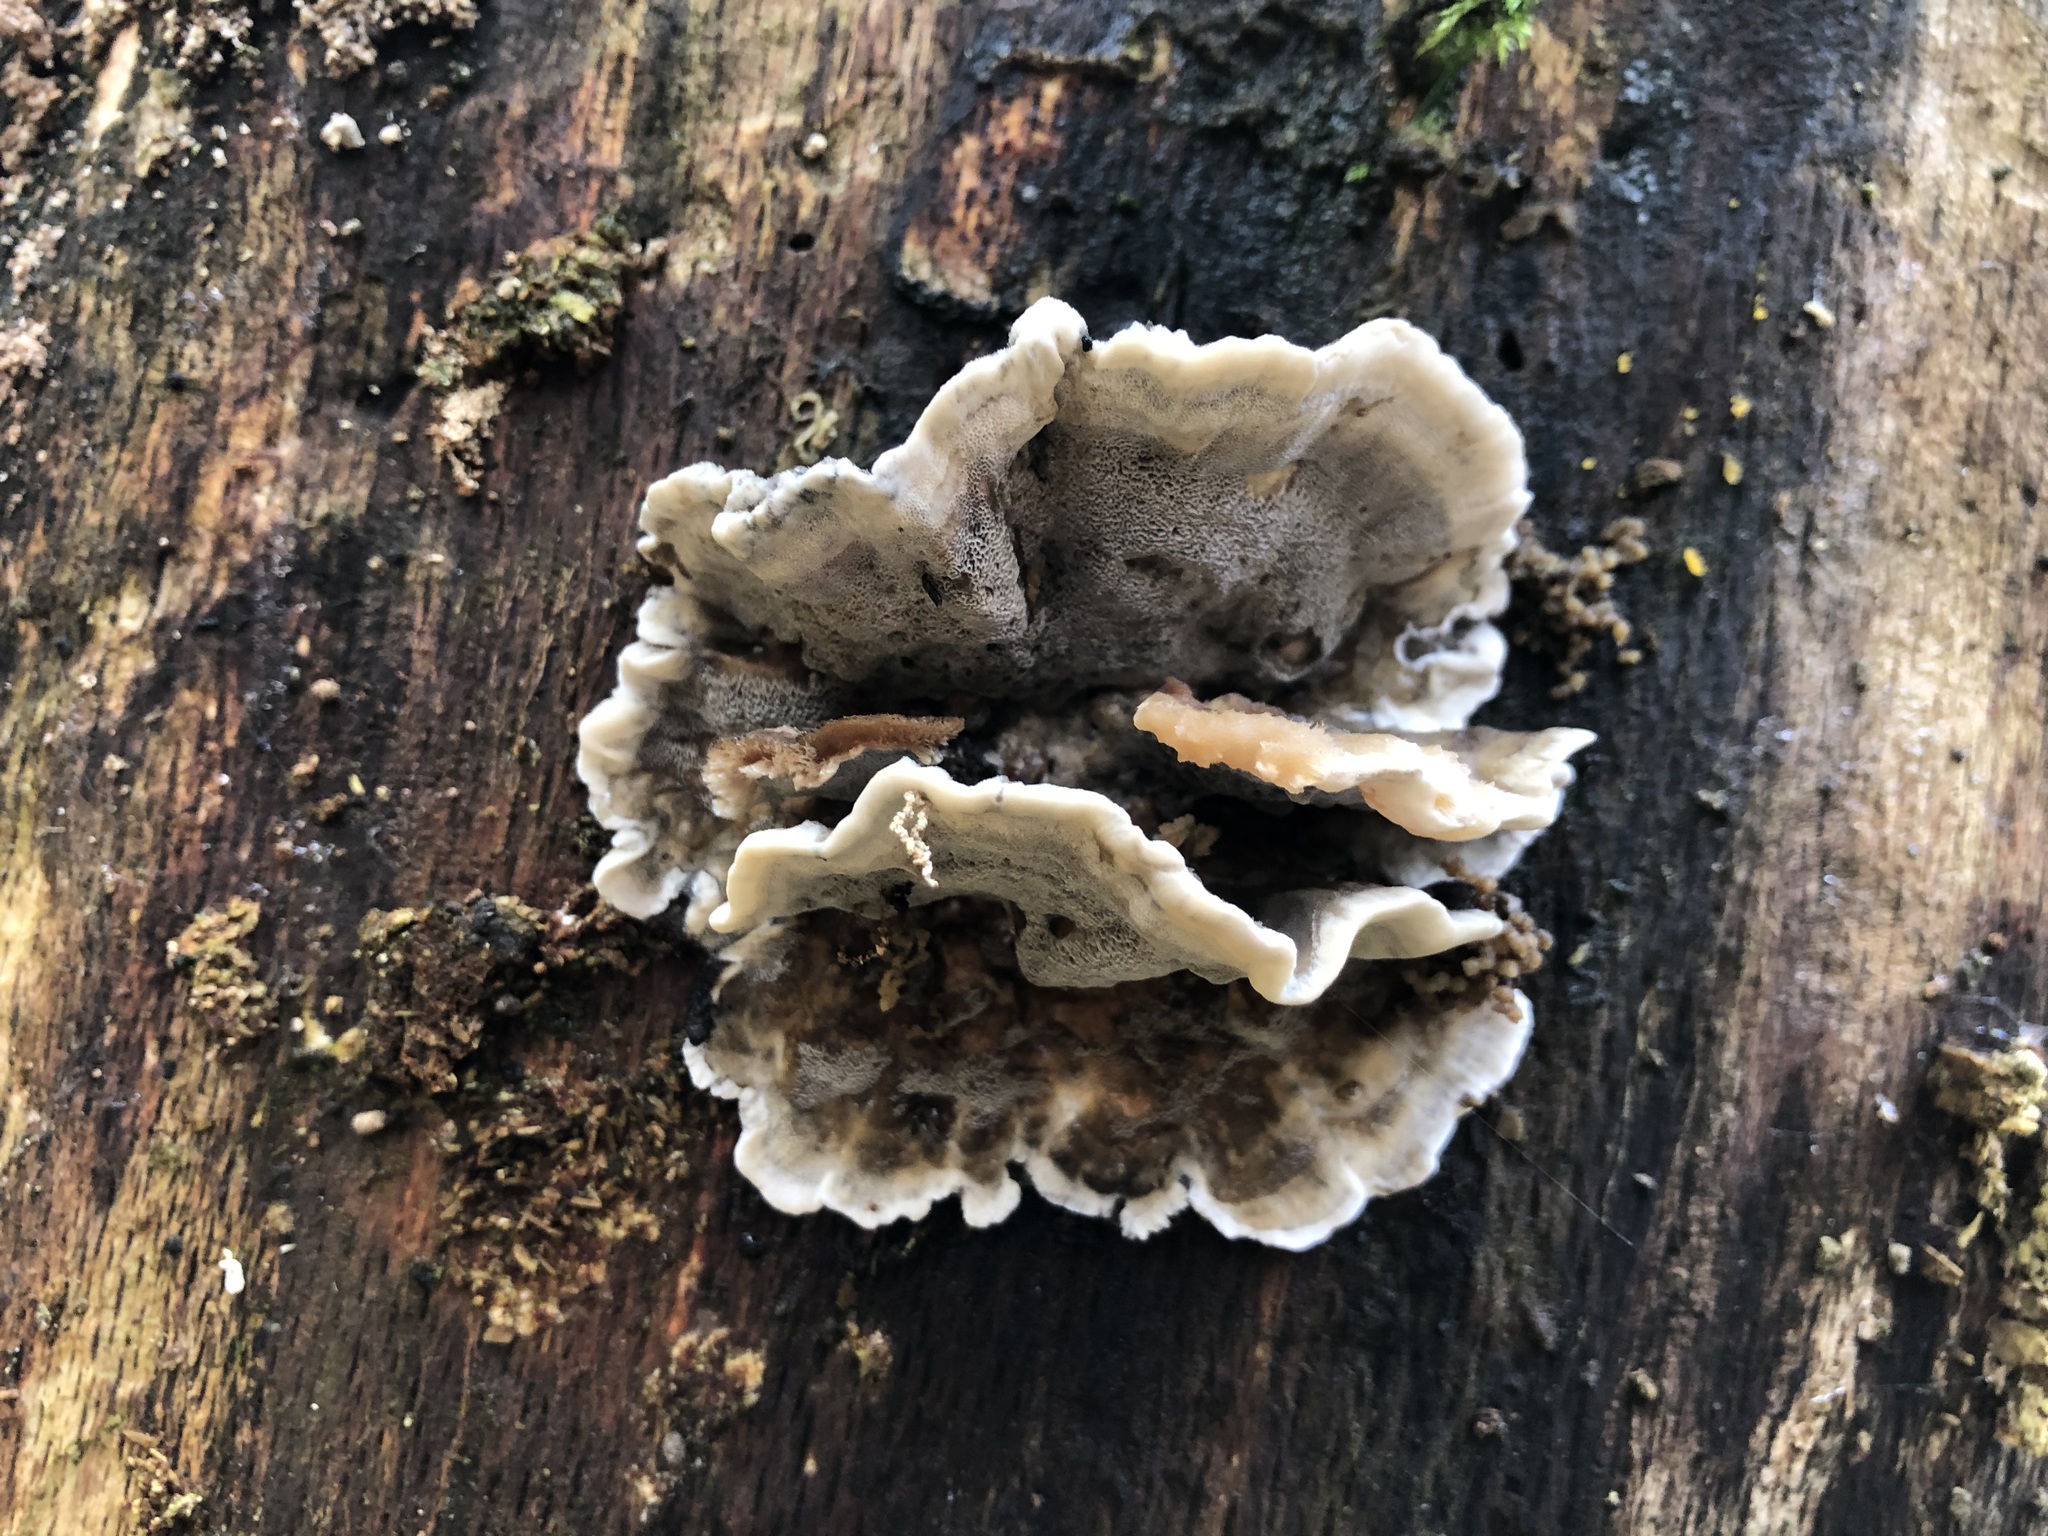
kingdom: Fungi
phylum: Basidiomycota
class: Agaricomycetes
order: Polyporales
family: Phanerochaetaceae
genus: Bjerkandera
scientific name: Bjerkandera adusta
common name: Smoky bracket
